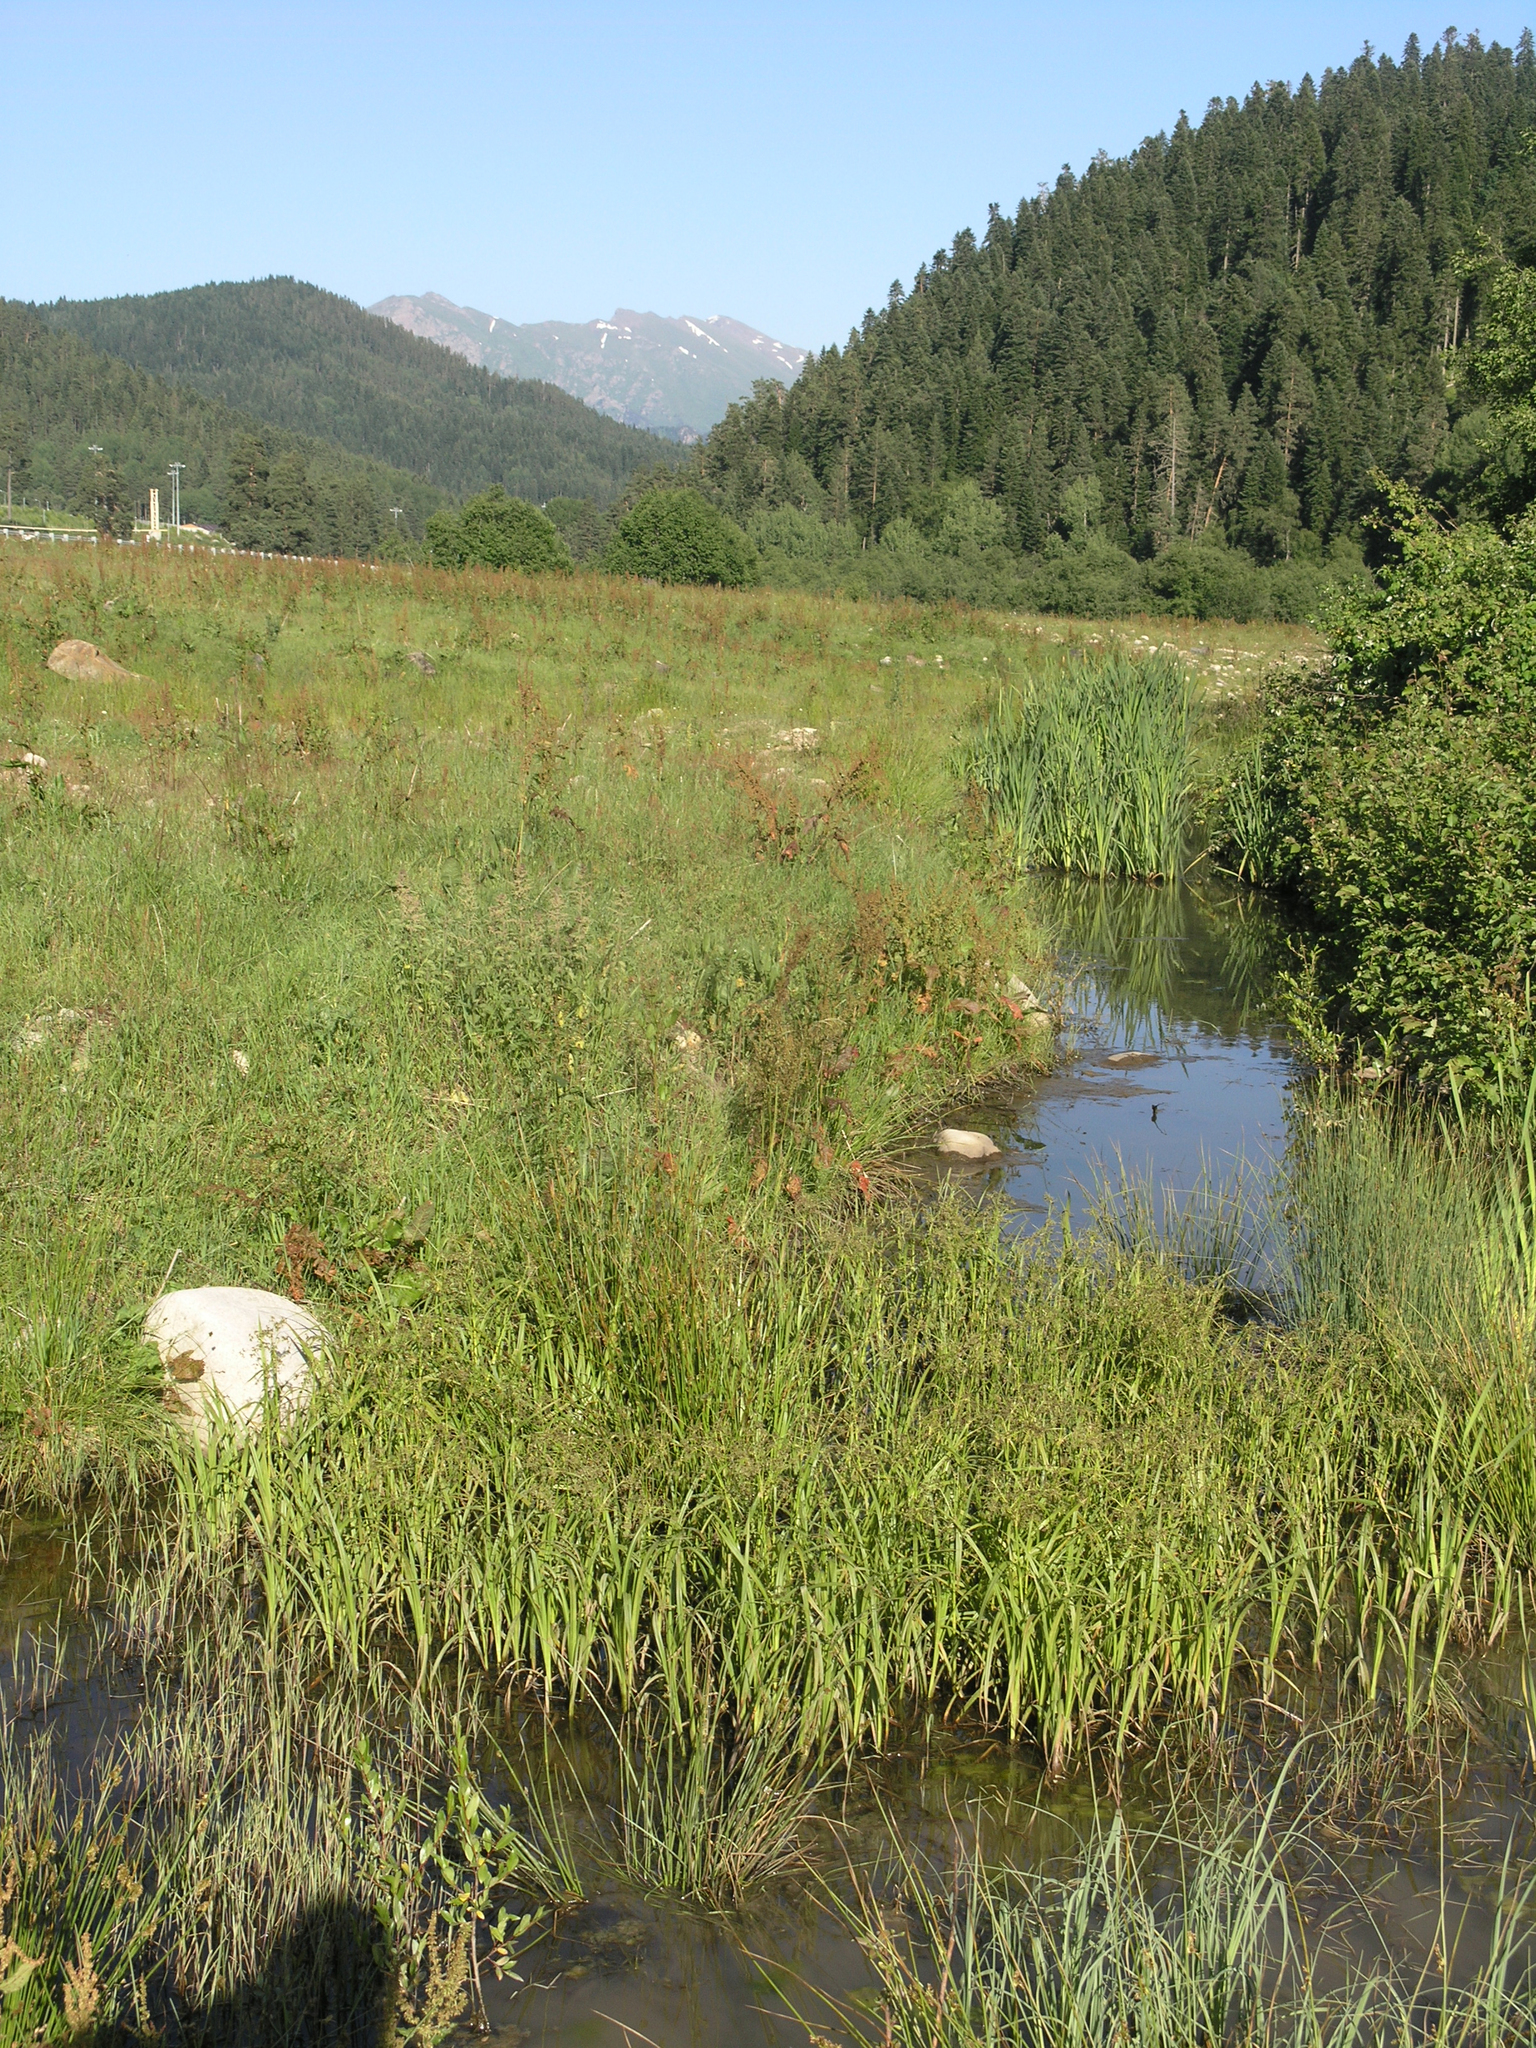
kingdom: Plantae
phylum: Tracheophyta
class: Liliopsida
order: Poales
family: Cyperaceae
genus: Scirpus
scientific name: Scirpus sylvaticus
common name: Wood club-rush
